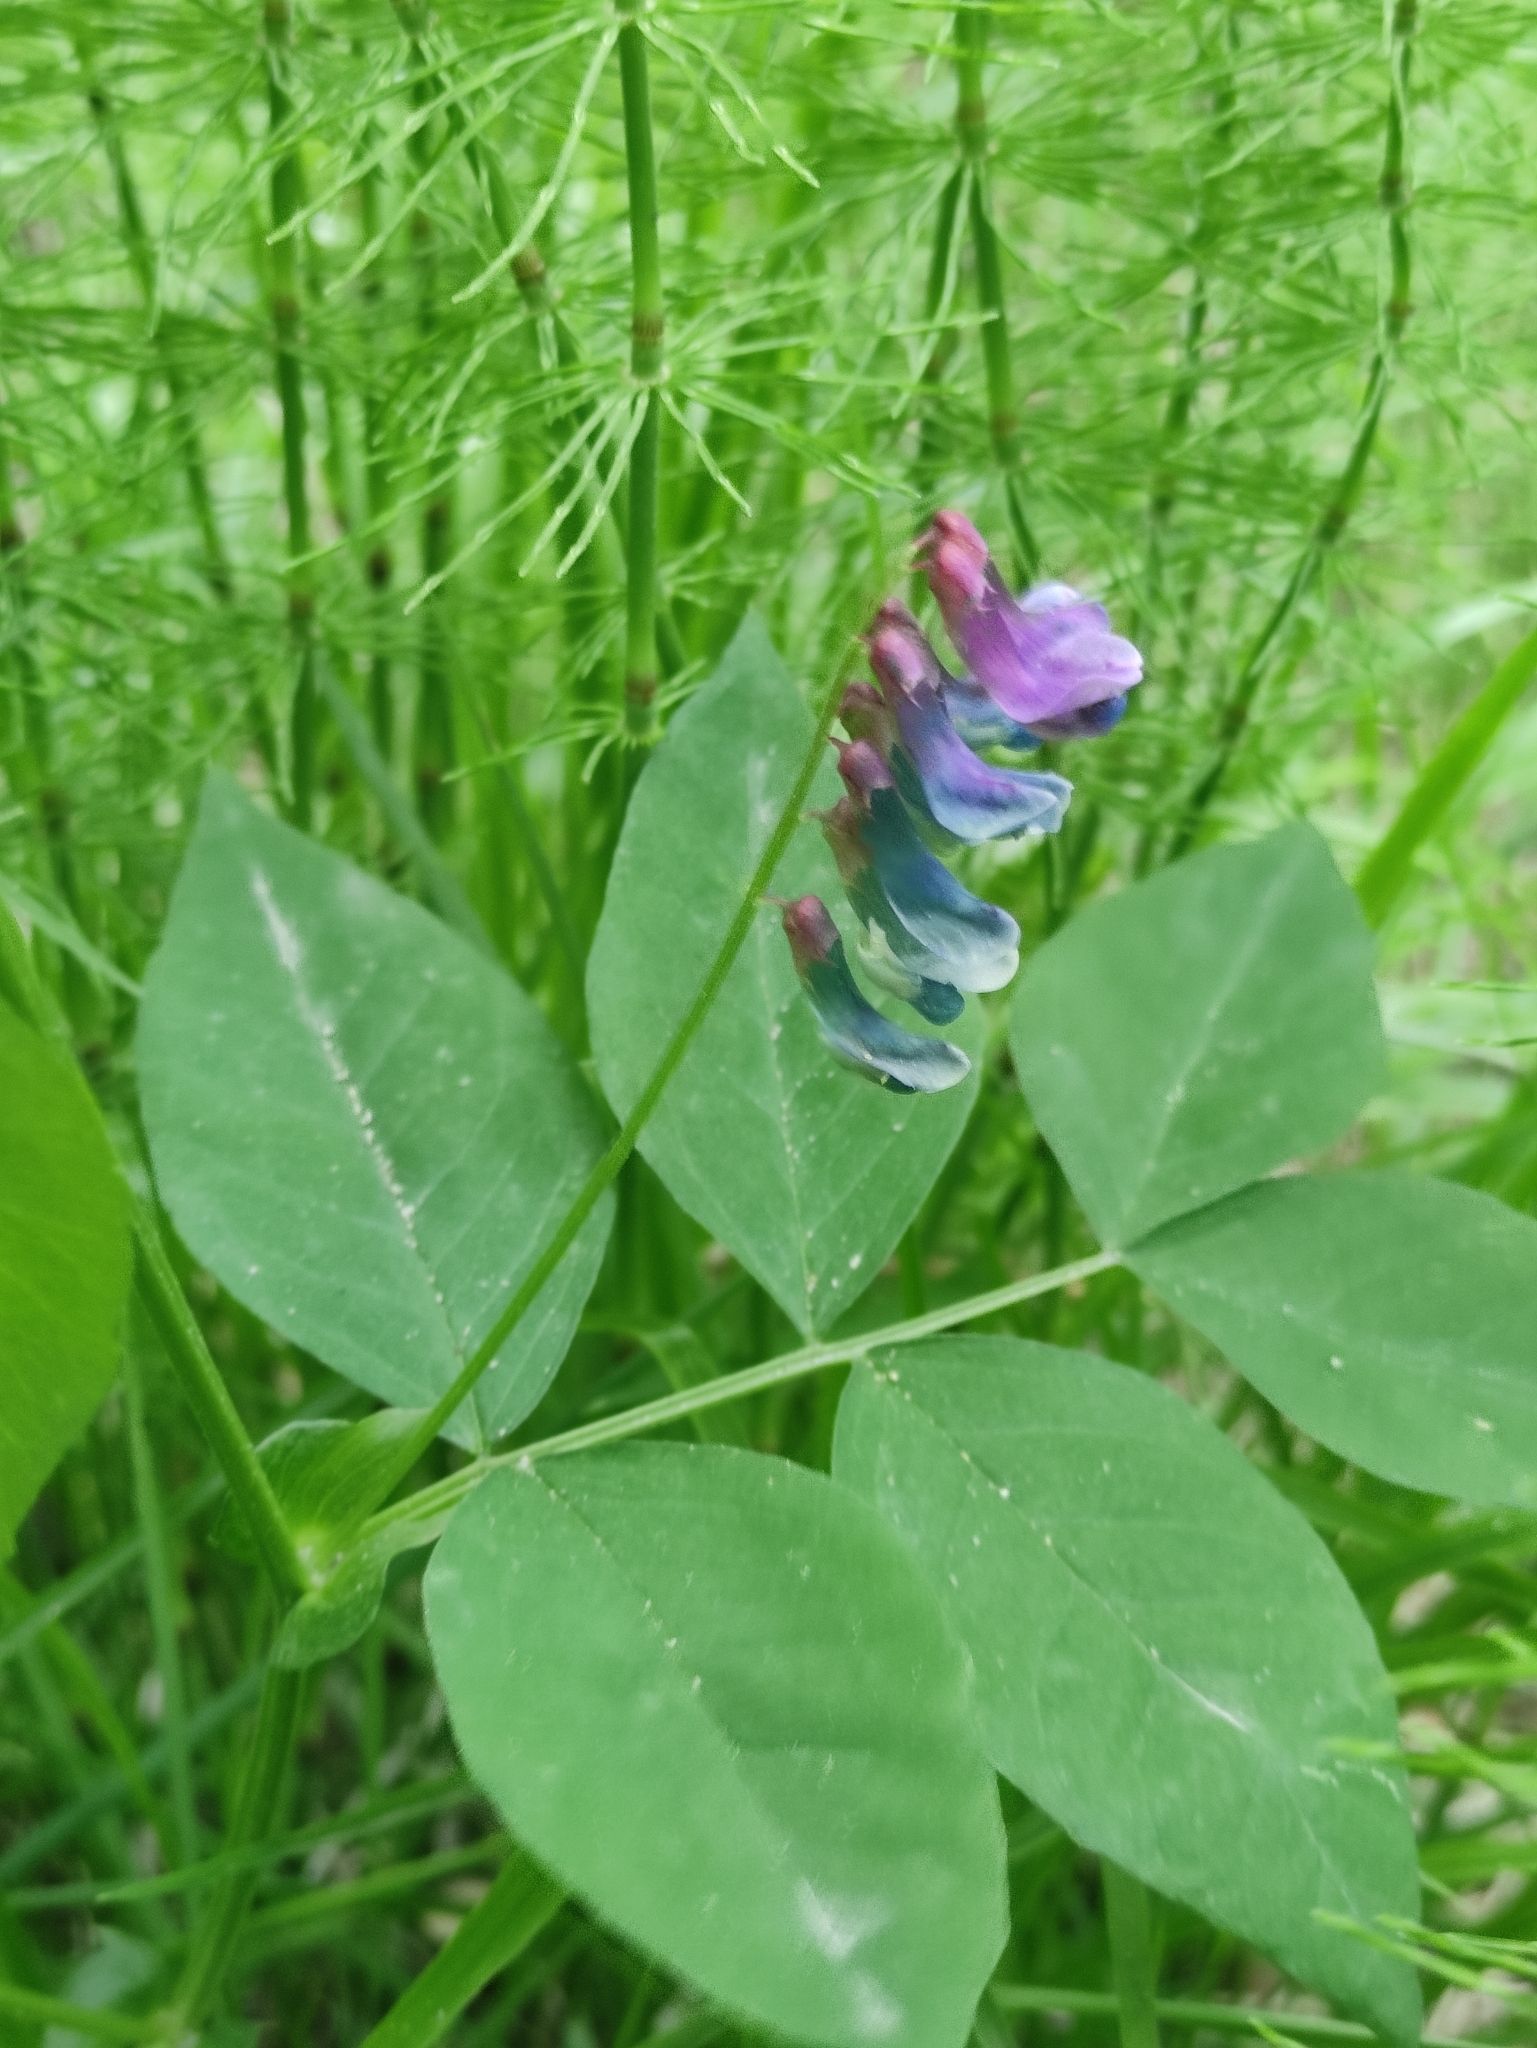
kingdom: Plantae
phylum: Tracheophyta
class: Magnoliopsida
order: Fabales
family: Fabaceae
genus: Vicia
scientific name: Vicia ramuliflora
